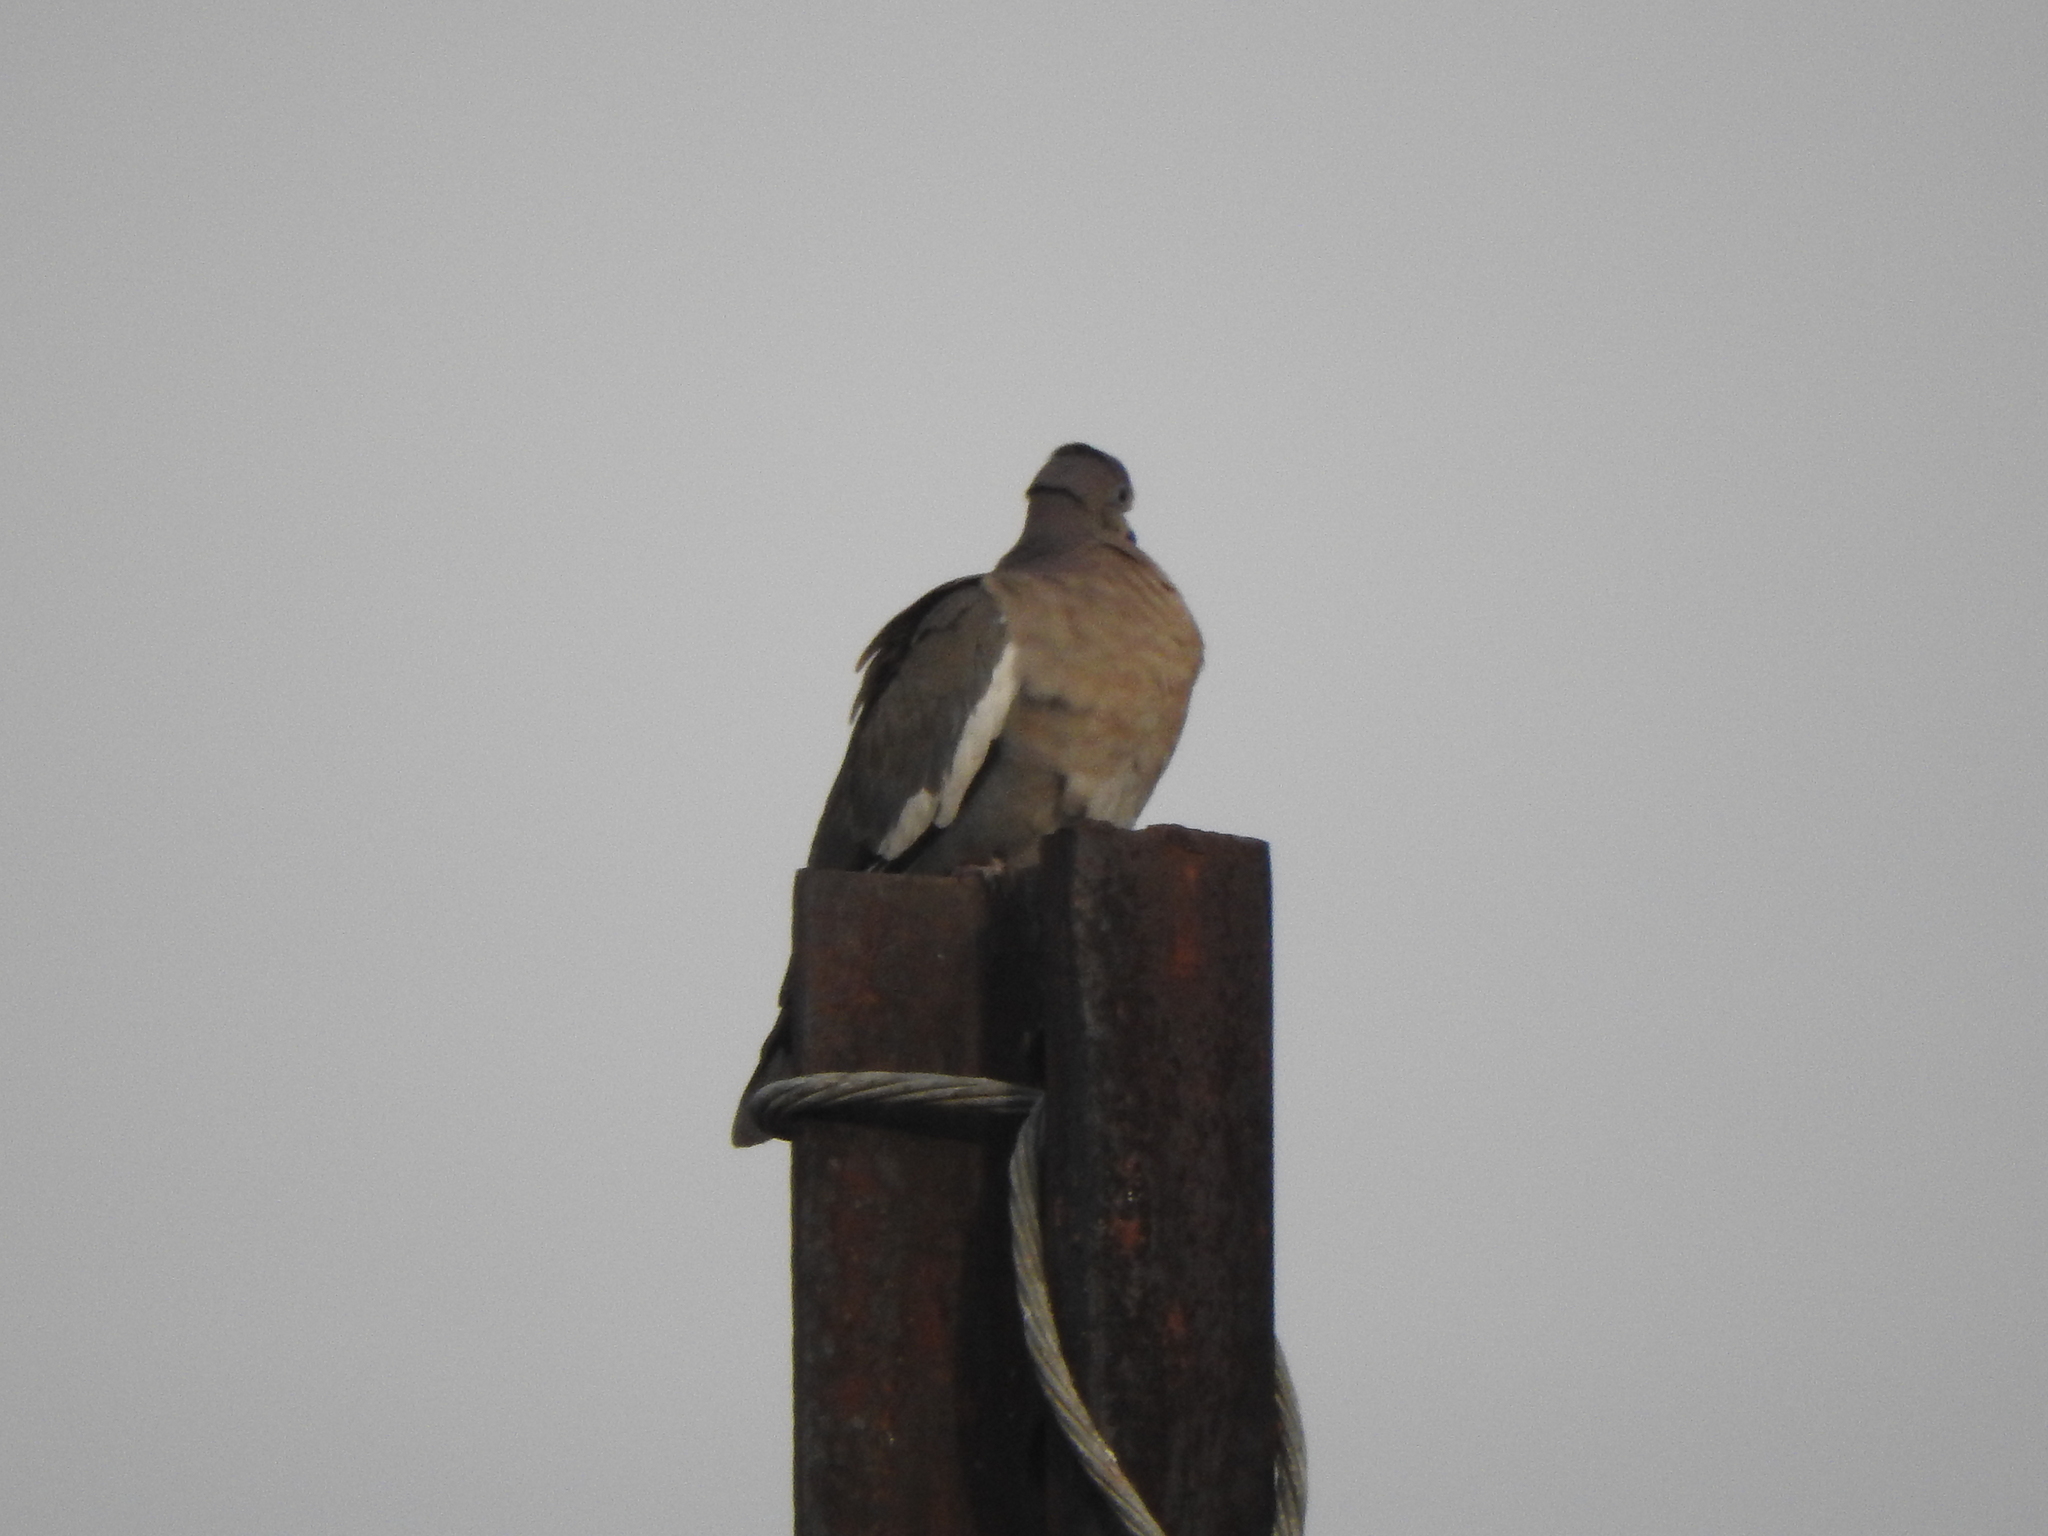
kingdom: Animalia
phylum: Chordata
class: Aves
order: Columbiformes
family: Columbidae
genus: Zenaida
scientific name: Zenaida asiatica
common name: White-winged dove
